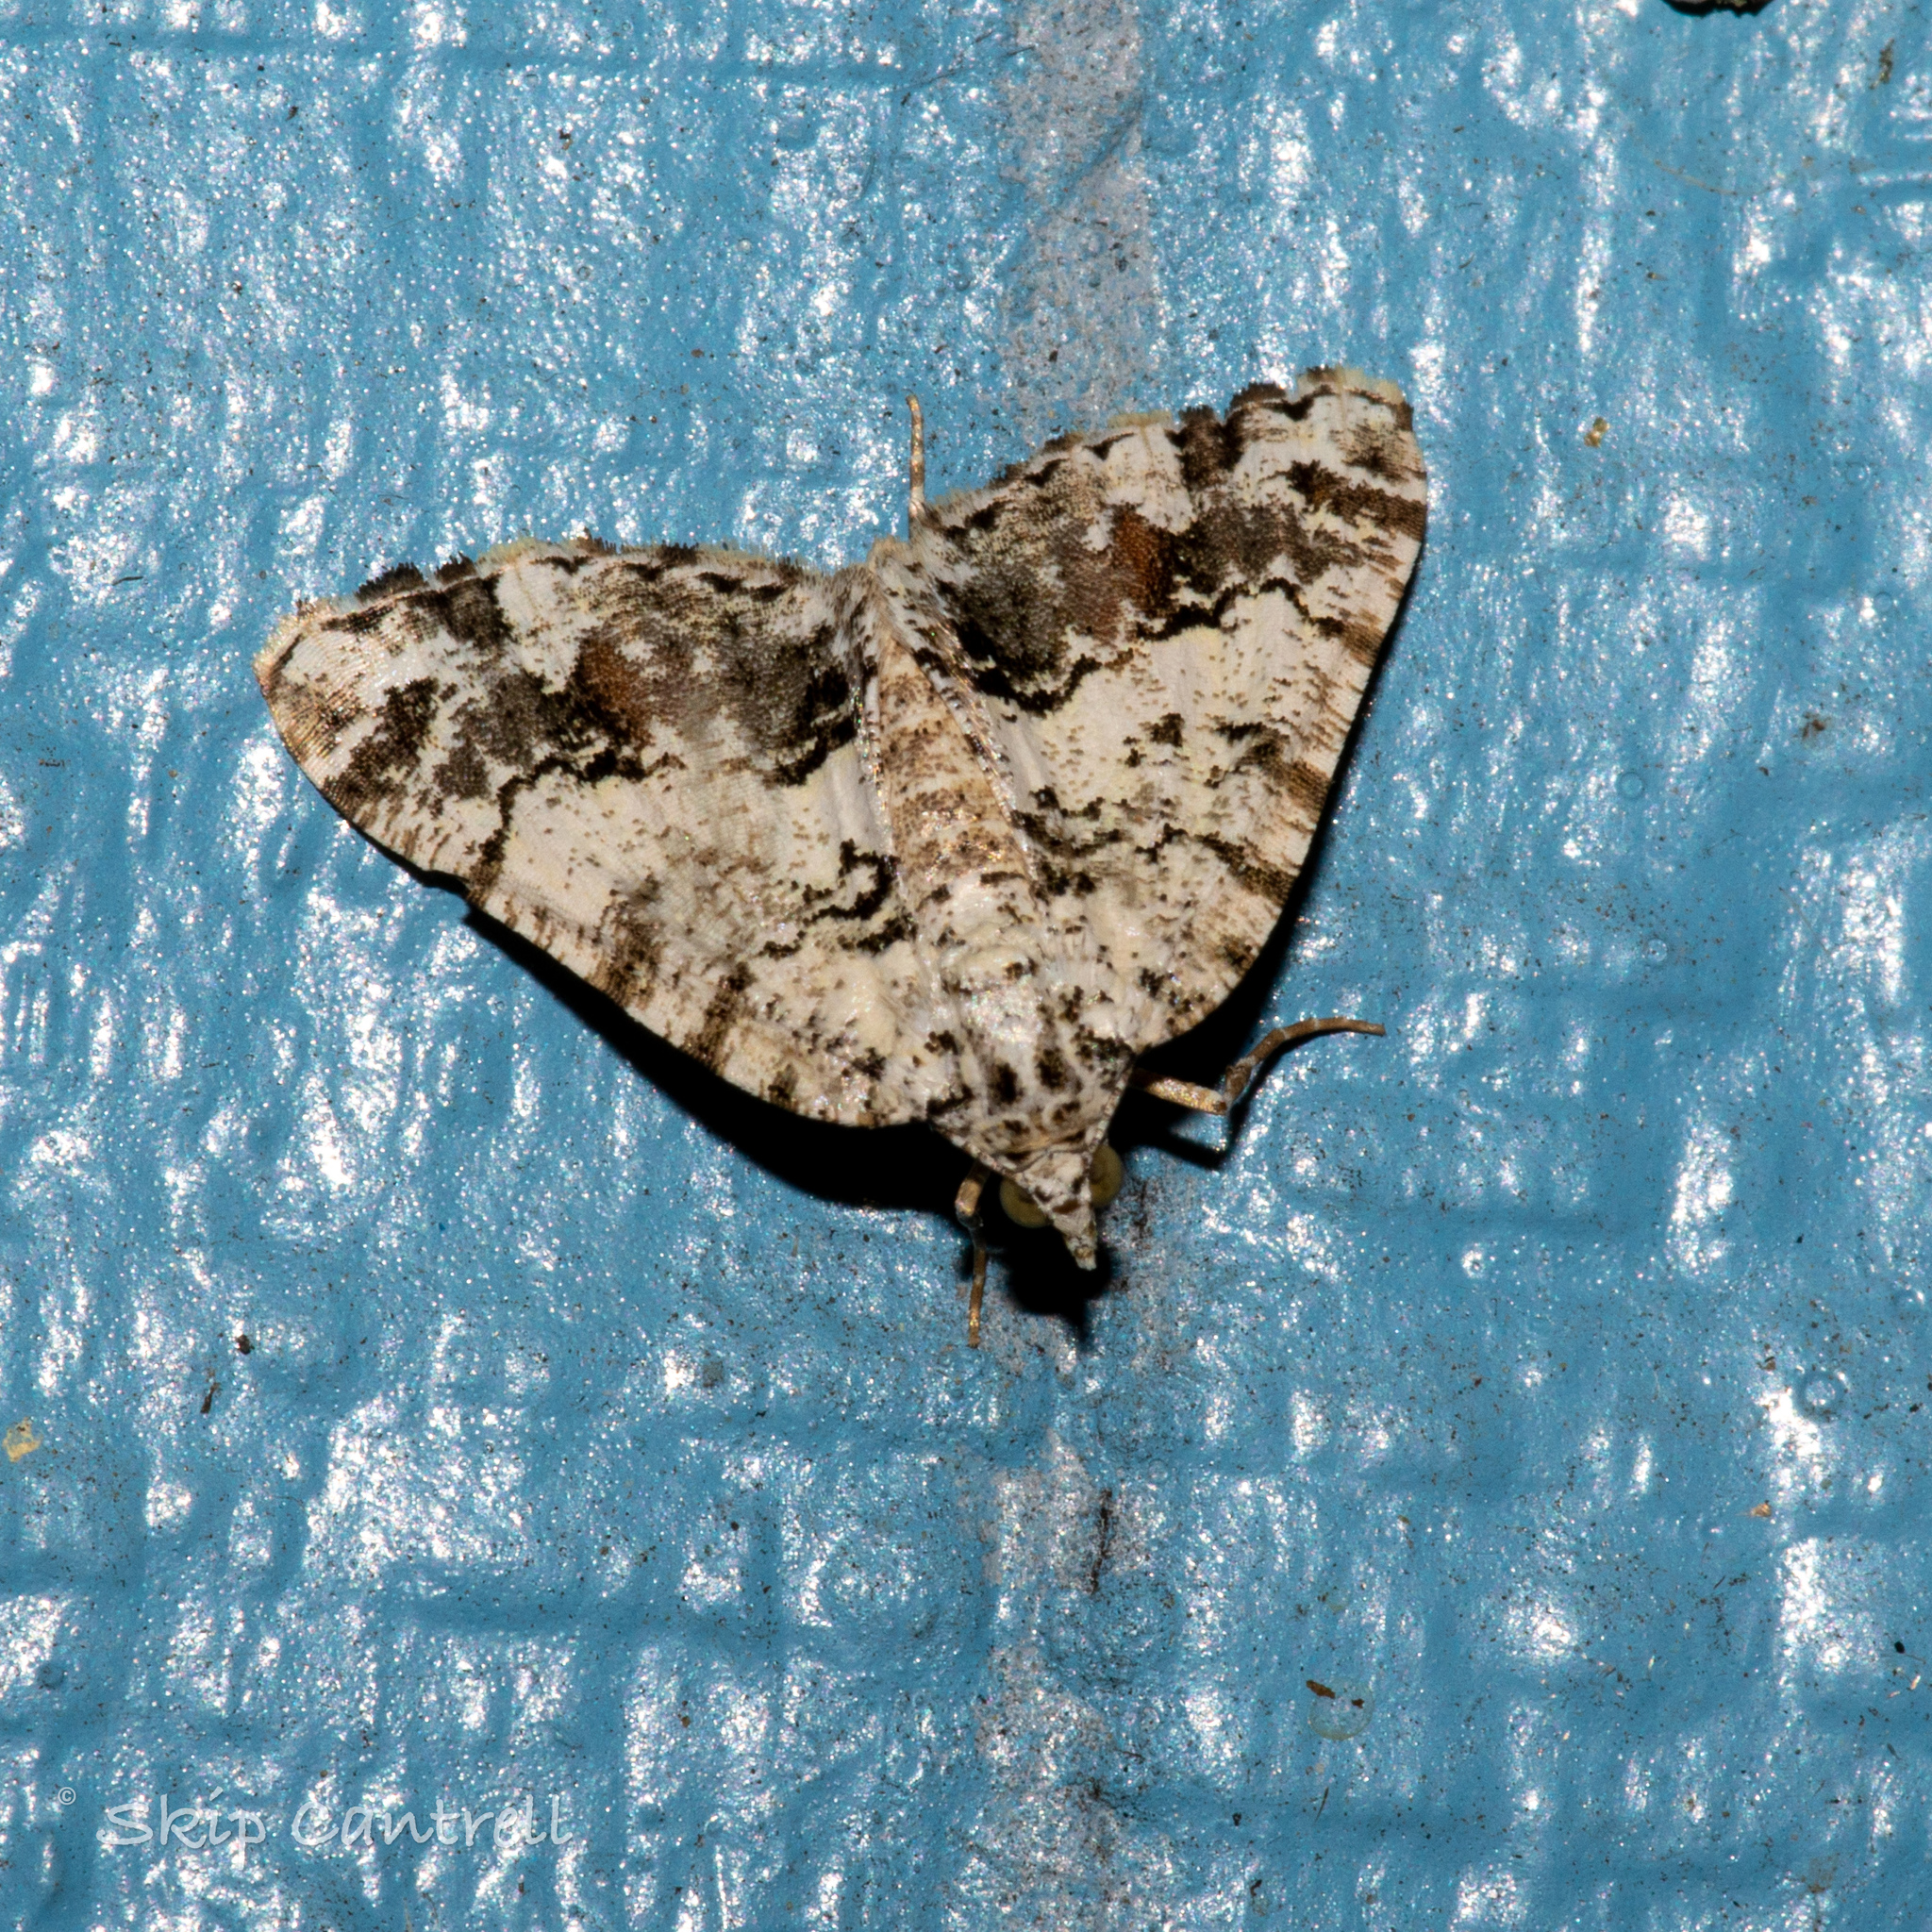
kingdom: Animalia
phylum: Arthropoda
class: Insecta
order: Lepidoptera
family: Geometridae
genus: Macaria
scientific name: Macaria graphidaria
